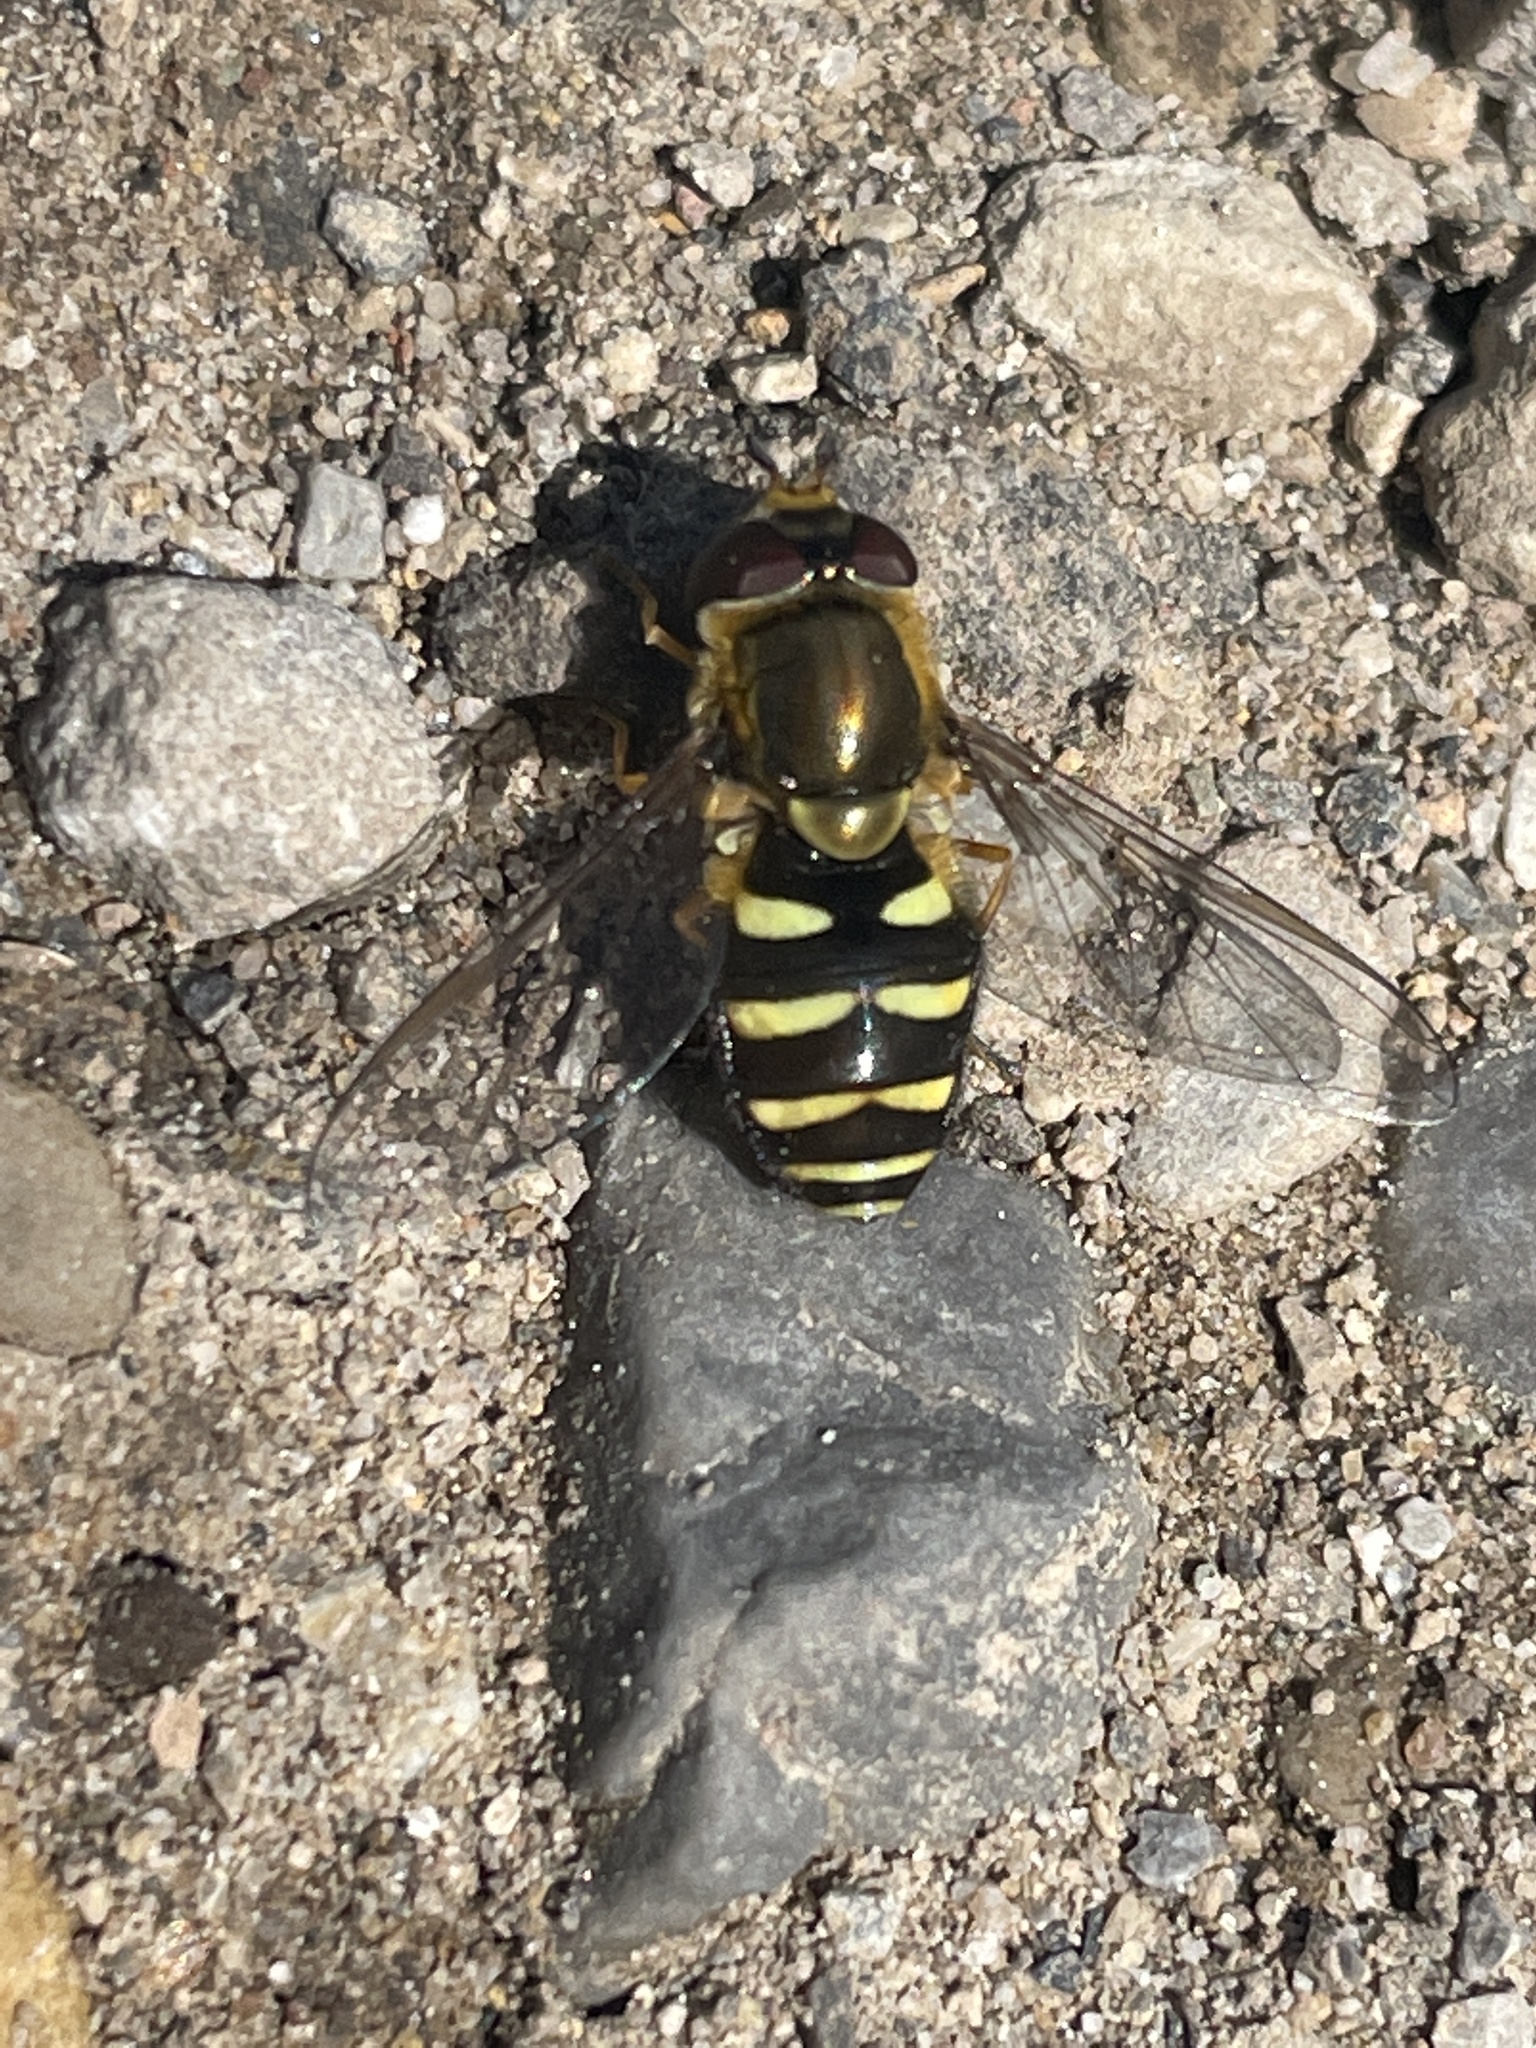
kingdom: Animalia
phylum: Arthropoda
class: Insecta
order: Diptera
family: Syrphidae
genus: Syrphus
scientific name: Syrphus opinator
